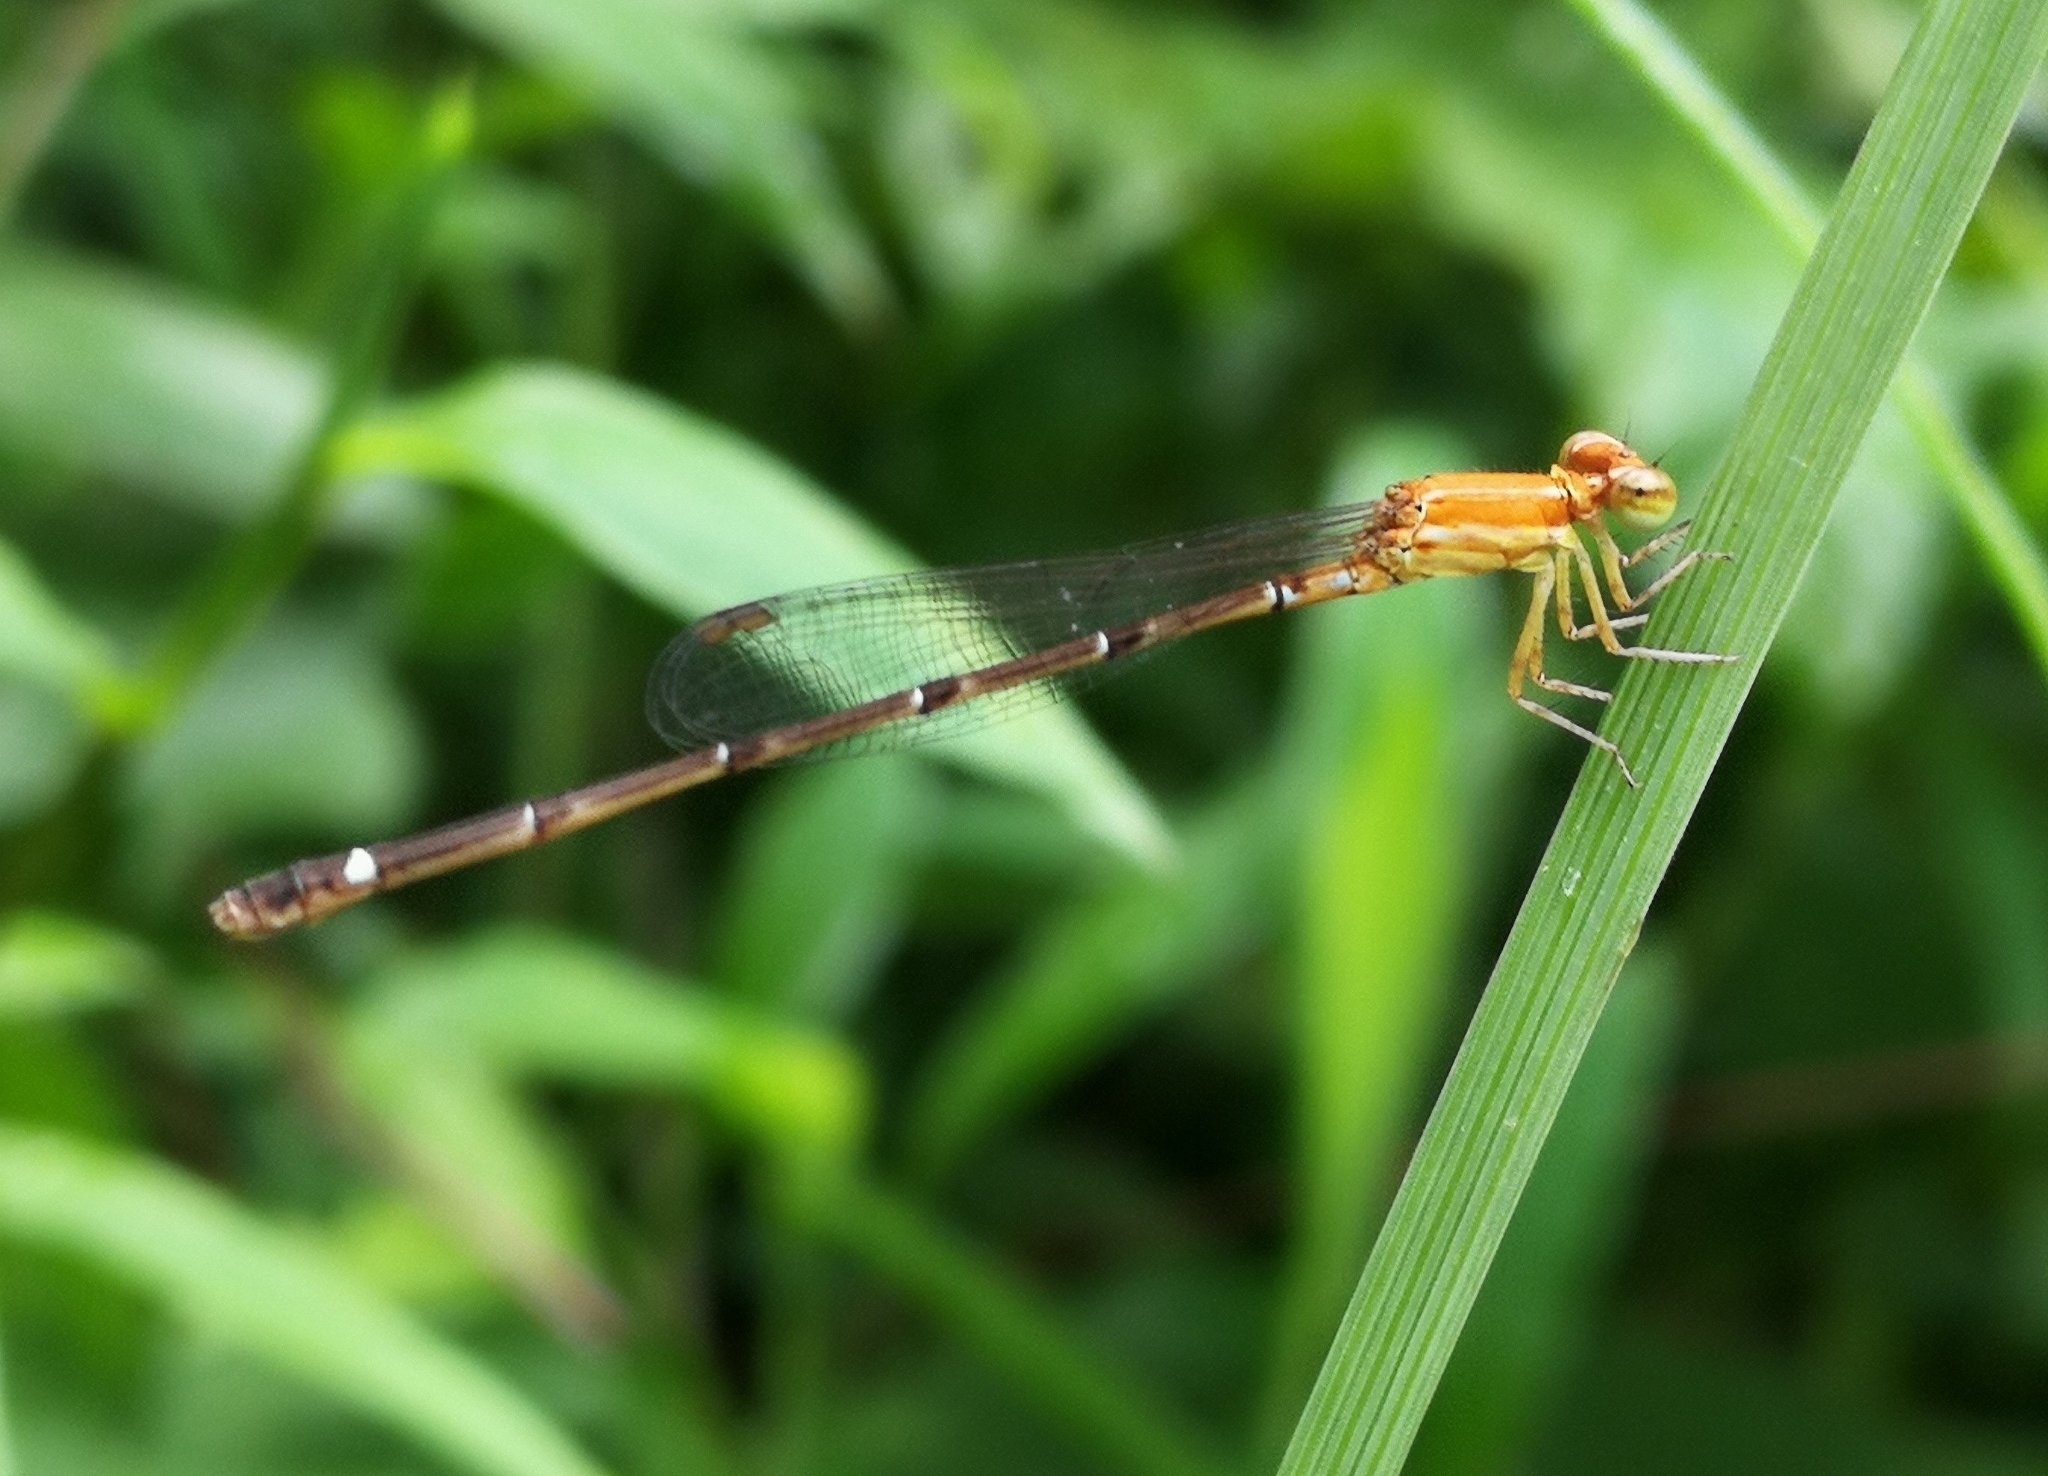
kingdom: Animalia
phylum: Arthropoda
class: Insecta
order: Odonata
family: Coenagrionidae
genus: Mortonagrion
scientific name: Mortonagrion varralli
